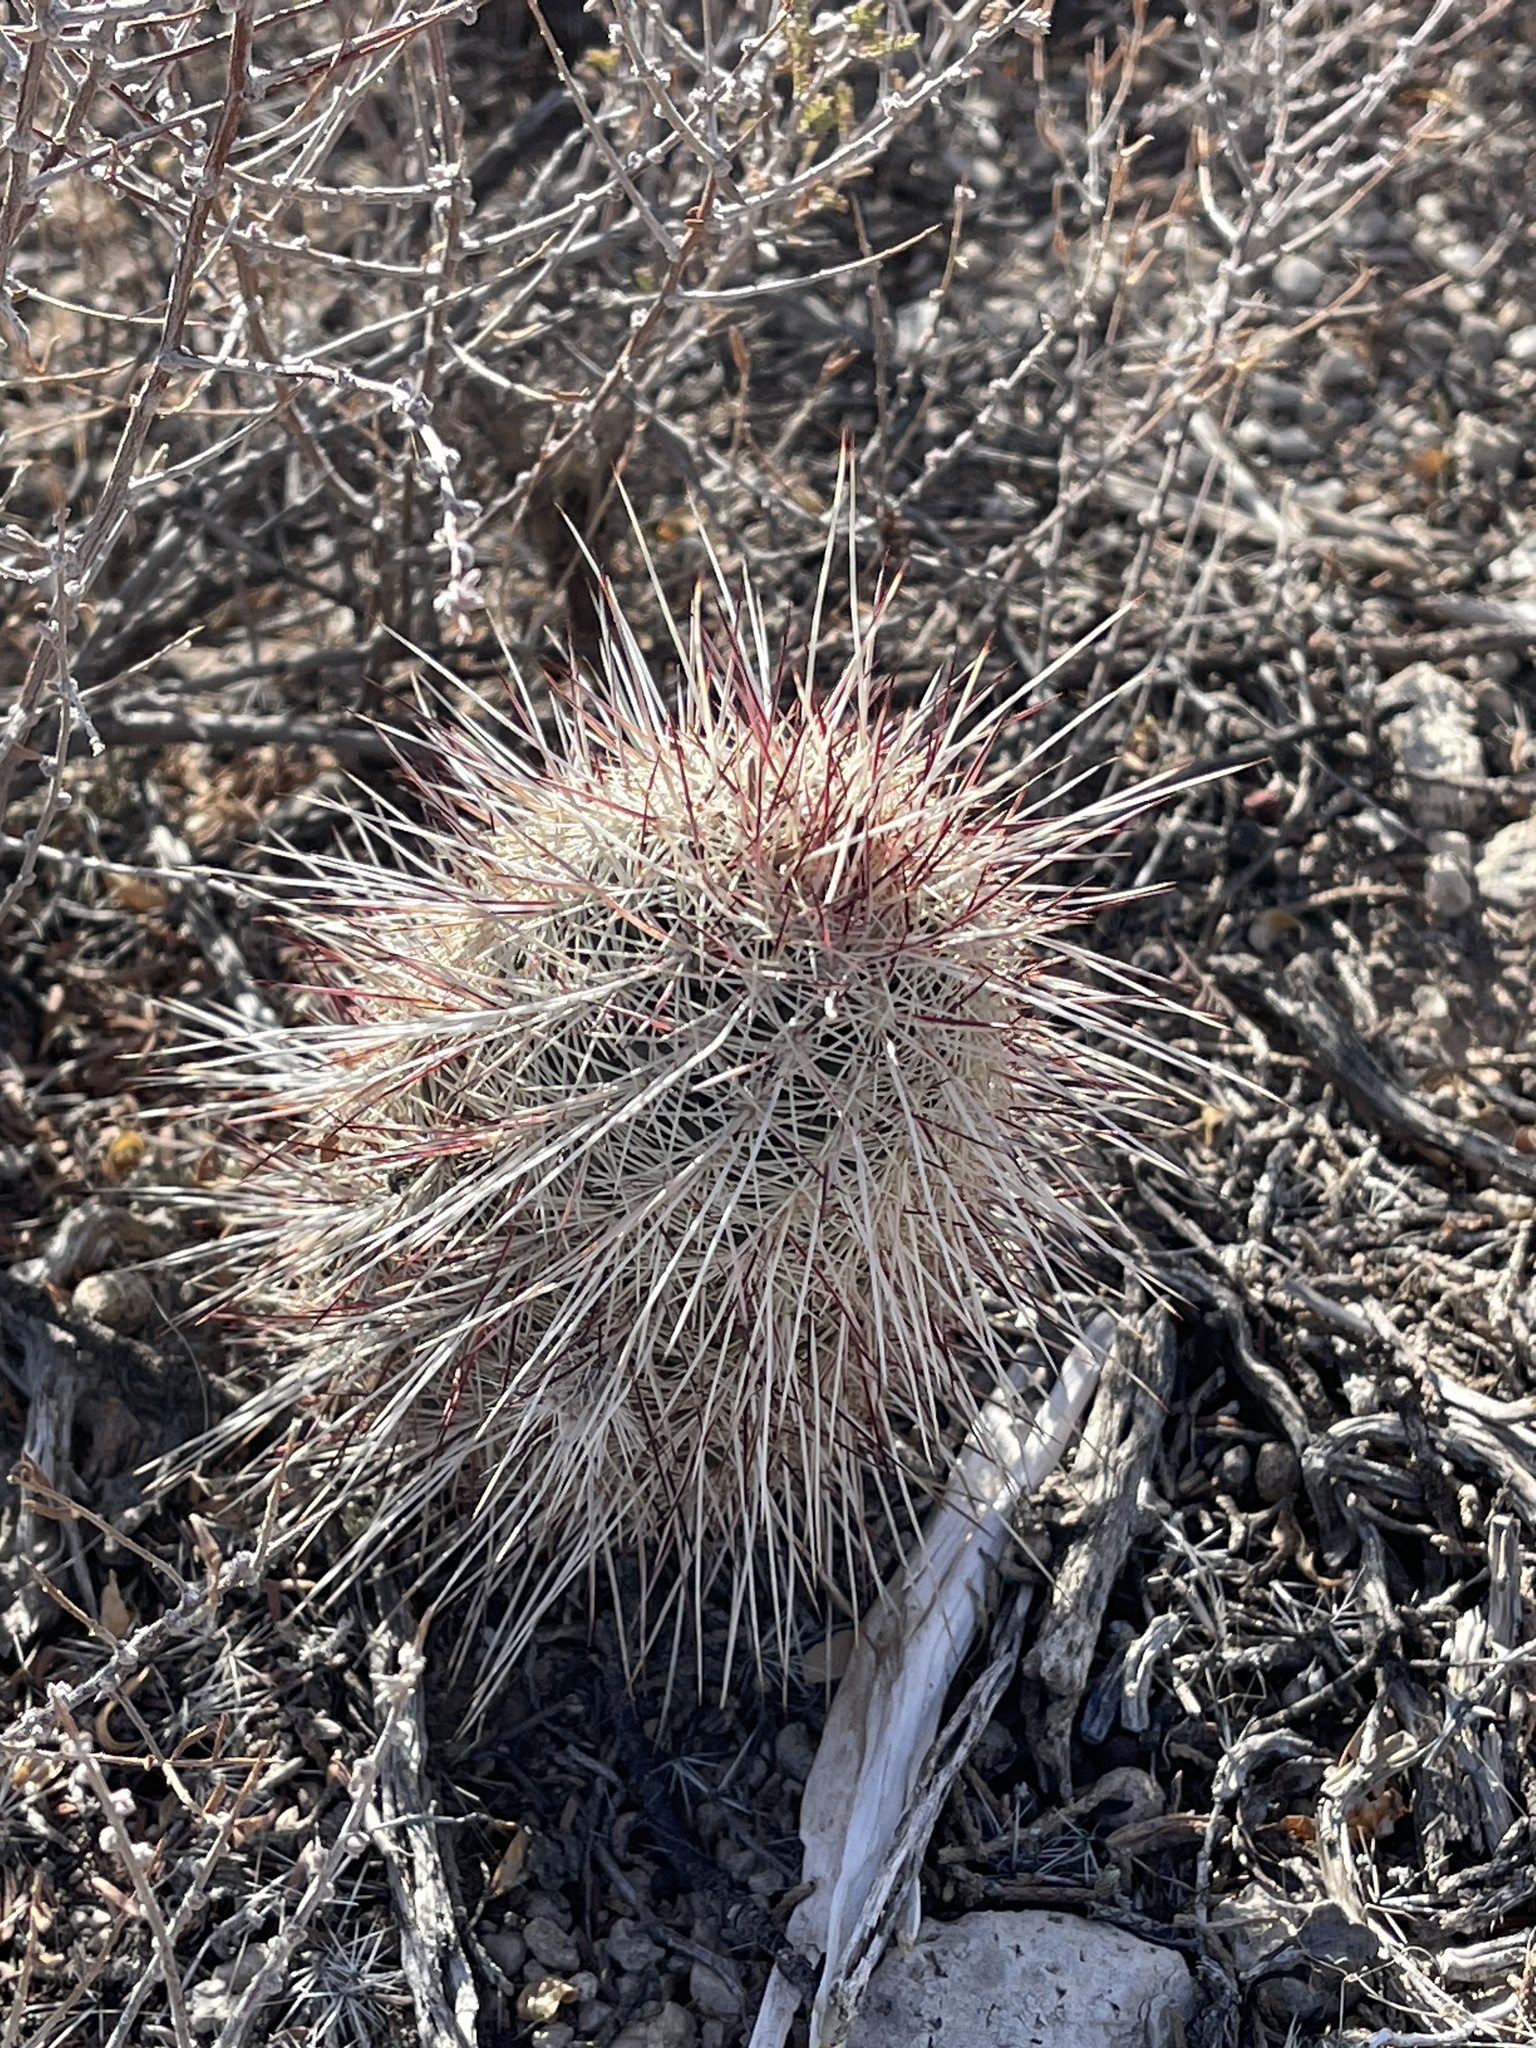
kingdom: Plantae
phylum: Tracheophyta
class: Magnoliopsida
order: Caryophyllales
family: Cactaceae
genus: Echinocereus
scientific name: Echinocereus viridiflorus
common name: Nylon hedgehog cactus
